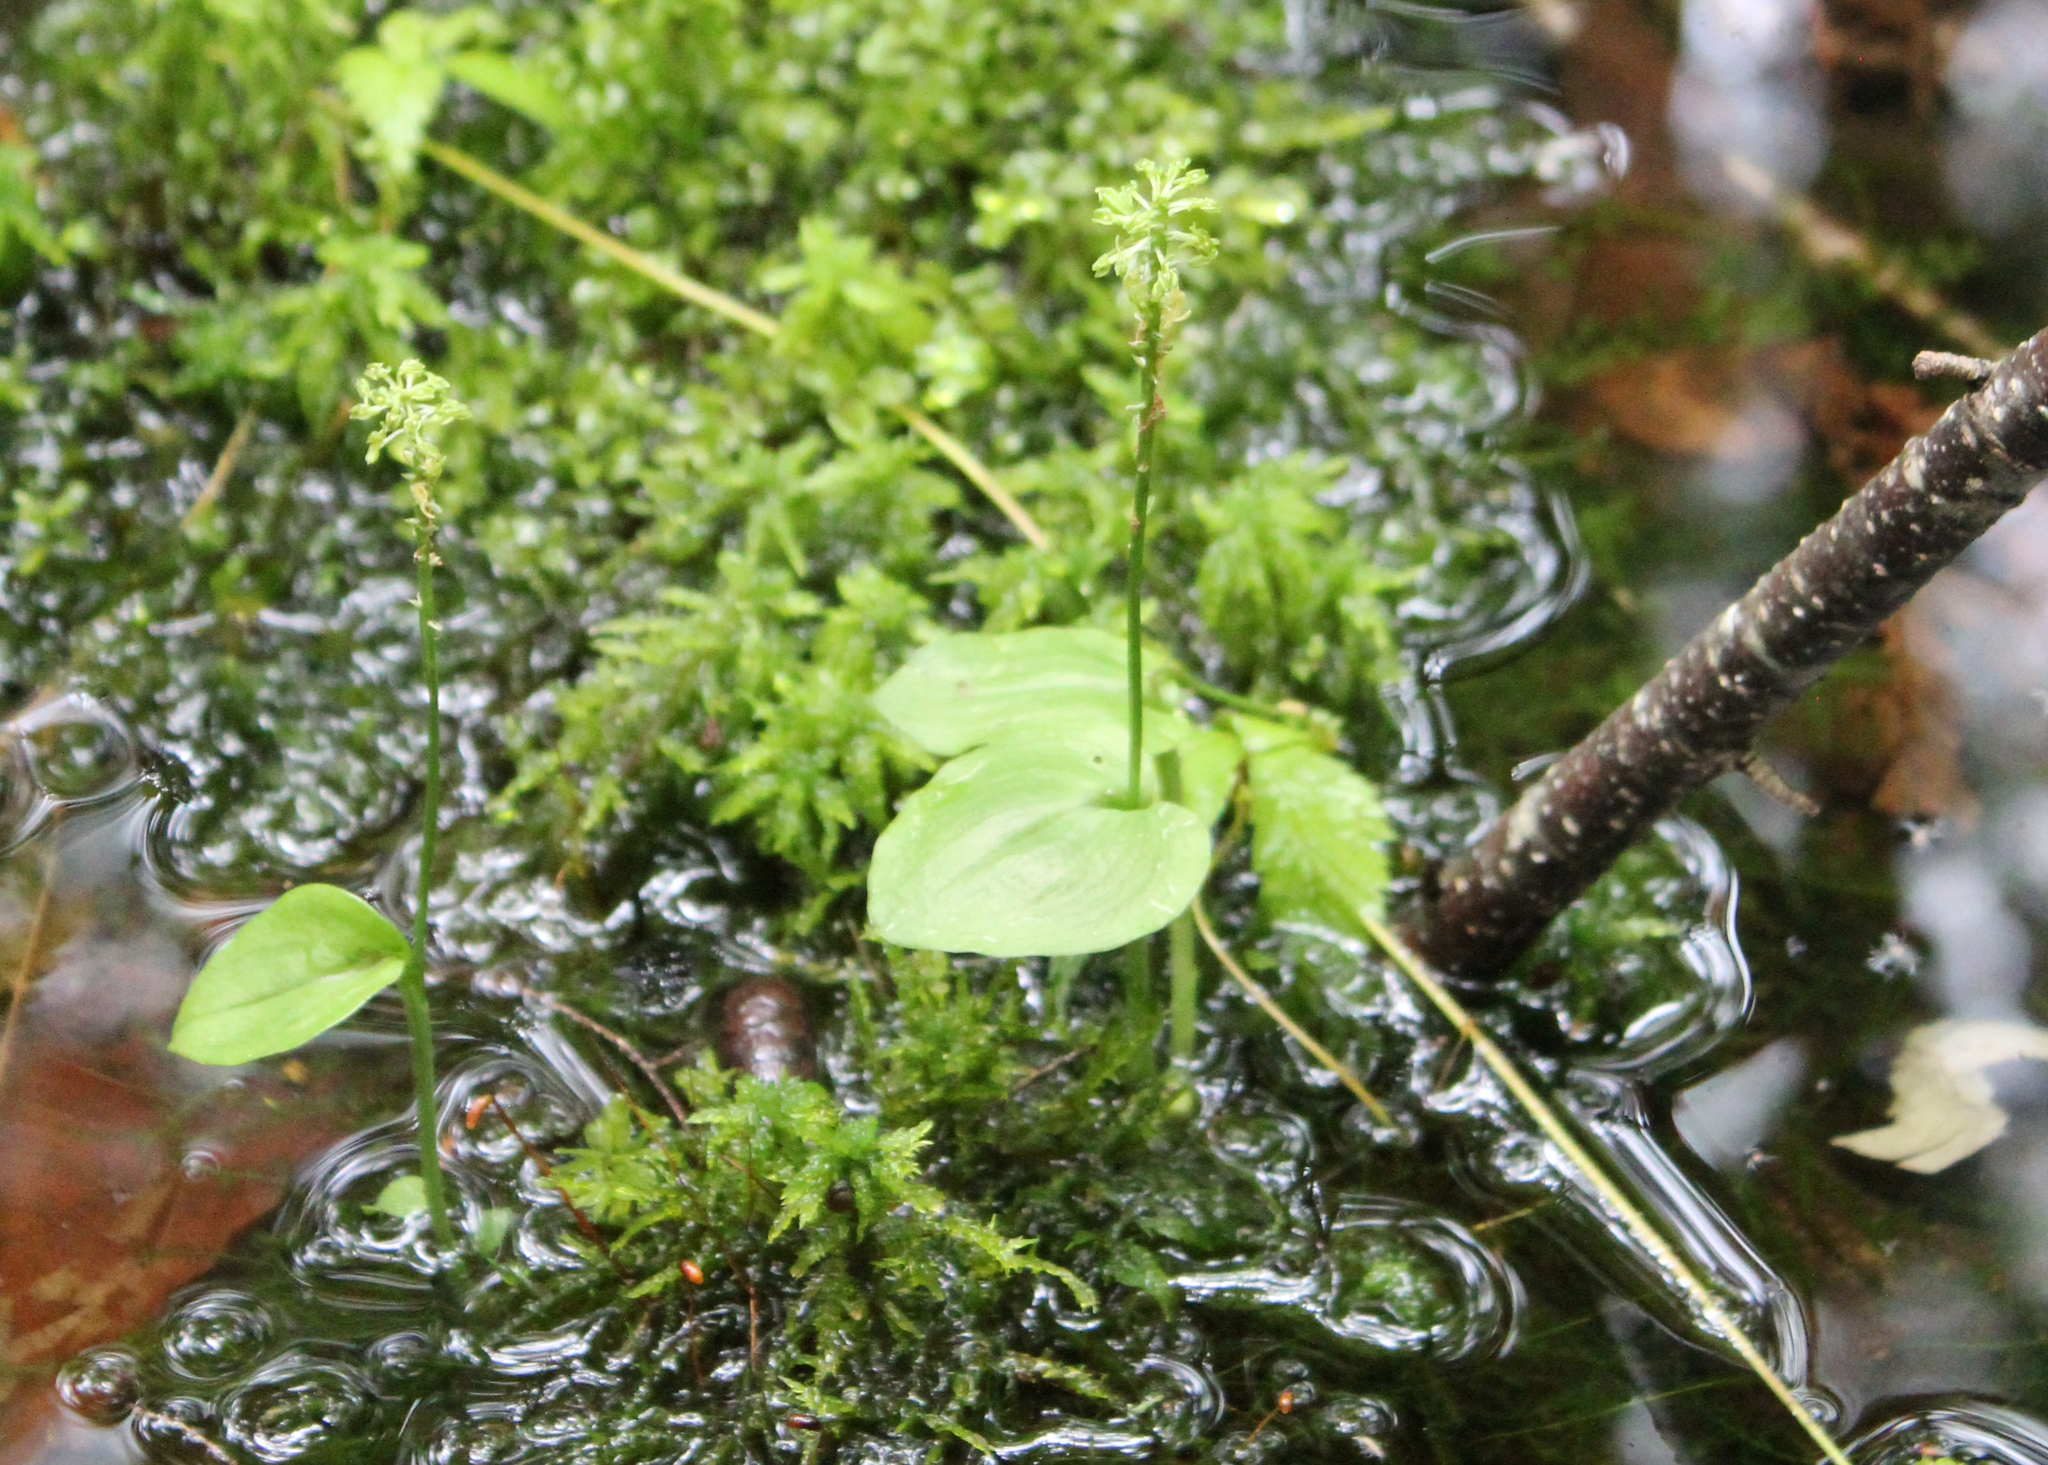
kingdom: Plantae
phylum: Tracheophyta
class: Liliopsida
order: Asparagales
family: Orchidaceae
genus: Malaxis
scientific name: Malaxis unifolia
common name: Green adder's-mouth
